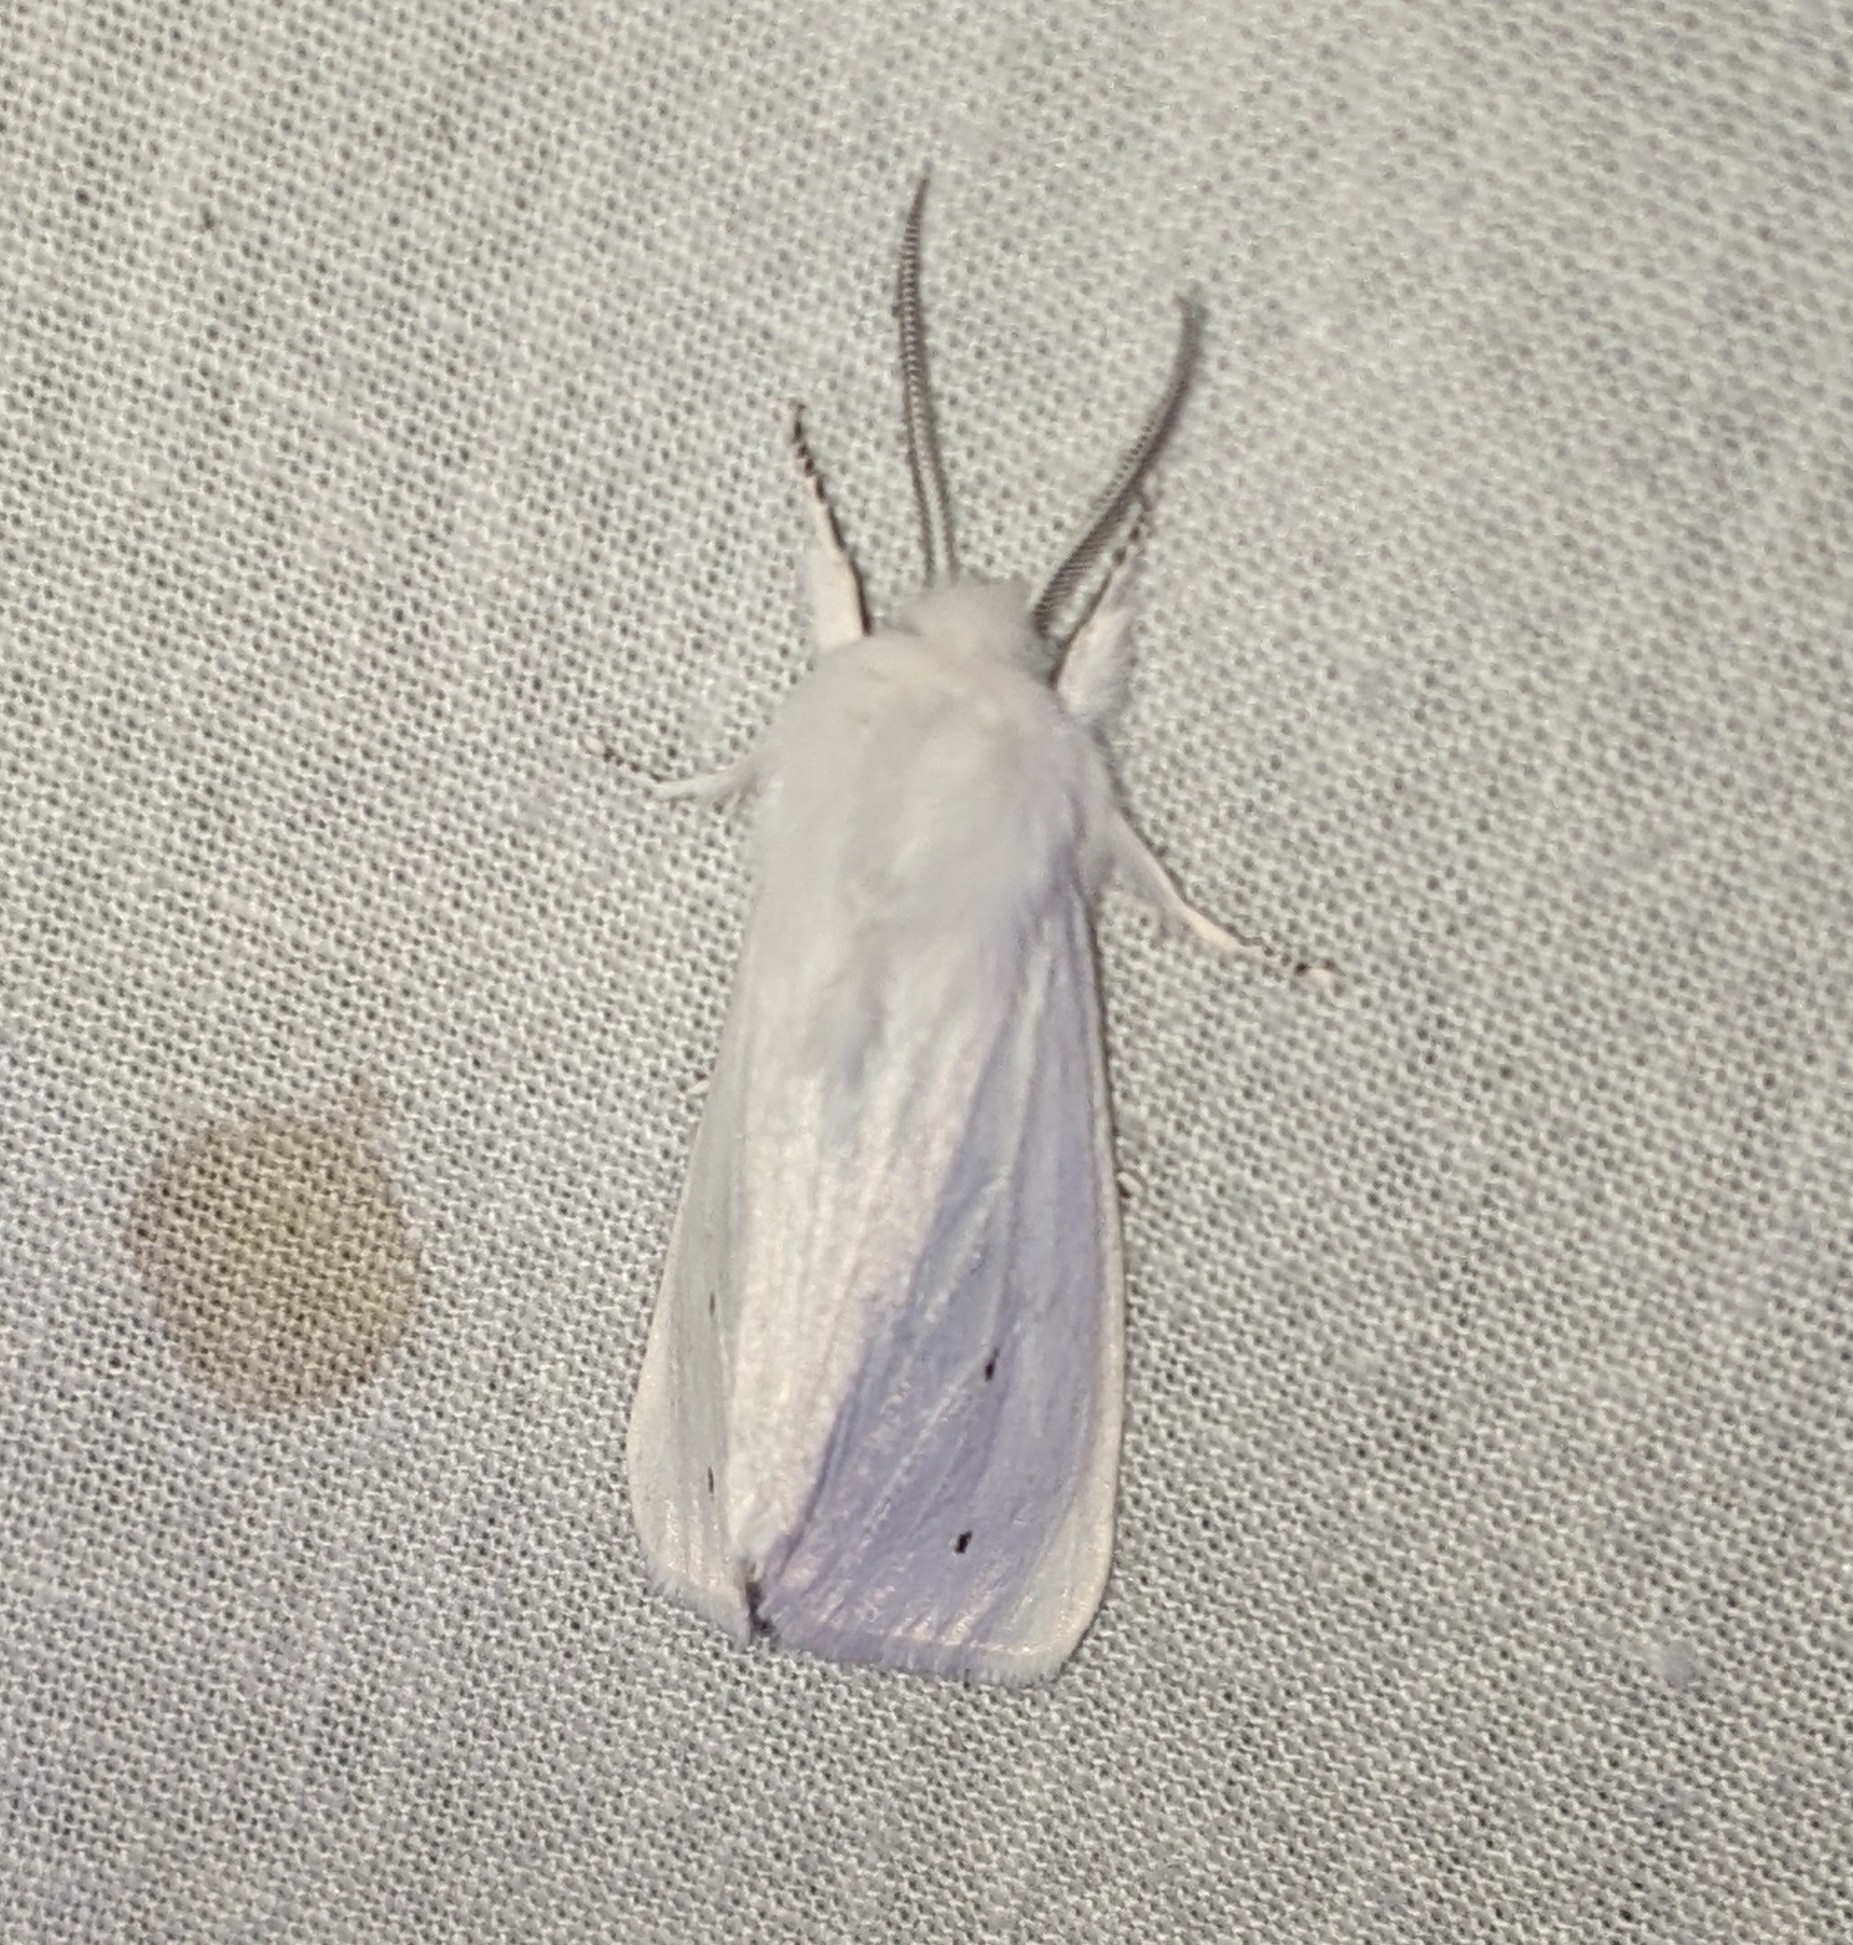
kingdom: Animalia
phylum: Arthropoda
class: Insecta
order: Lepidoptera
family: Erebidae
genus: Spilosoma
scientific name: Spilosoma virginica
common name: Virginia tiger moth
